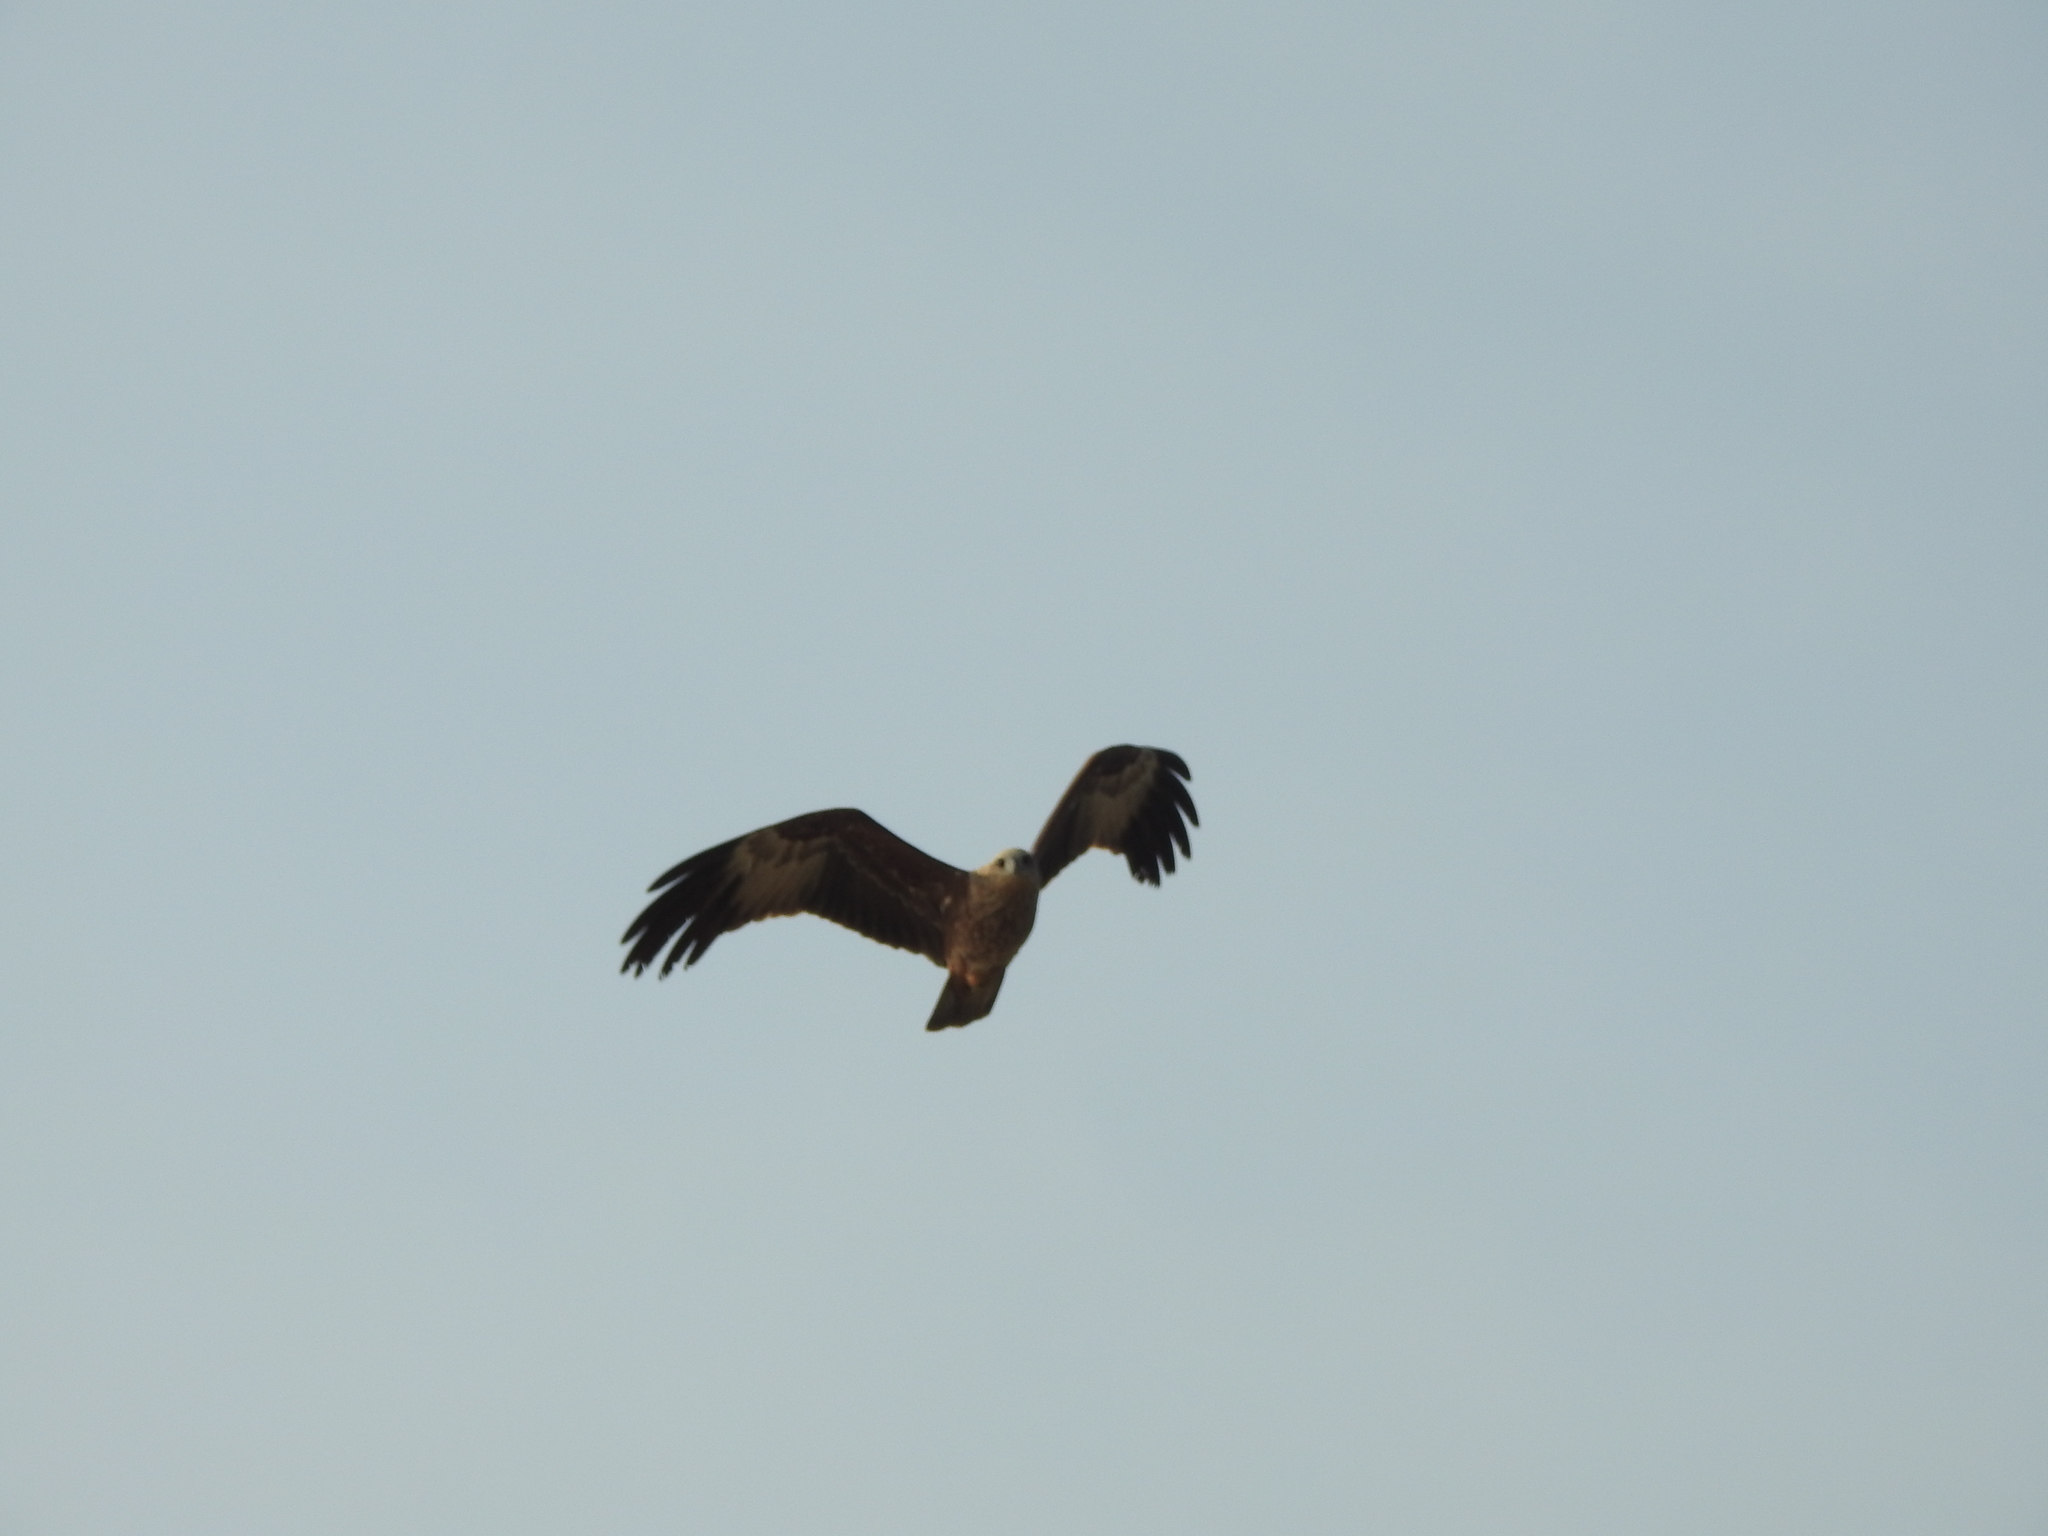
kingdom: Animalia
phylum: Chordata
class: Aves
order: Accipitriformes
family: Accipitridae
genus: Haliastur
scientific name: Haliastur indus
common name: Brahminy kite
